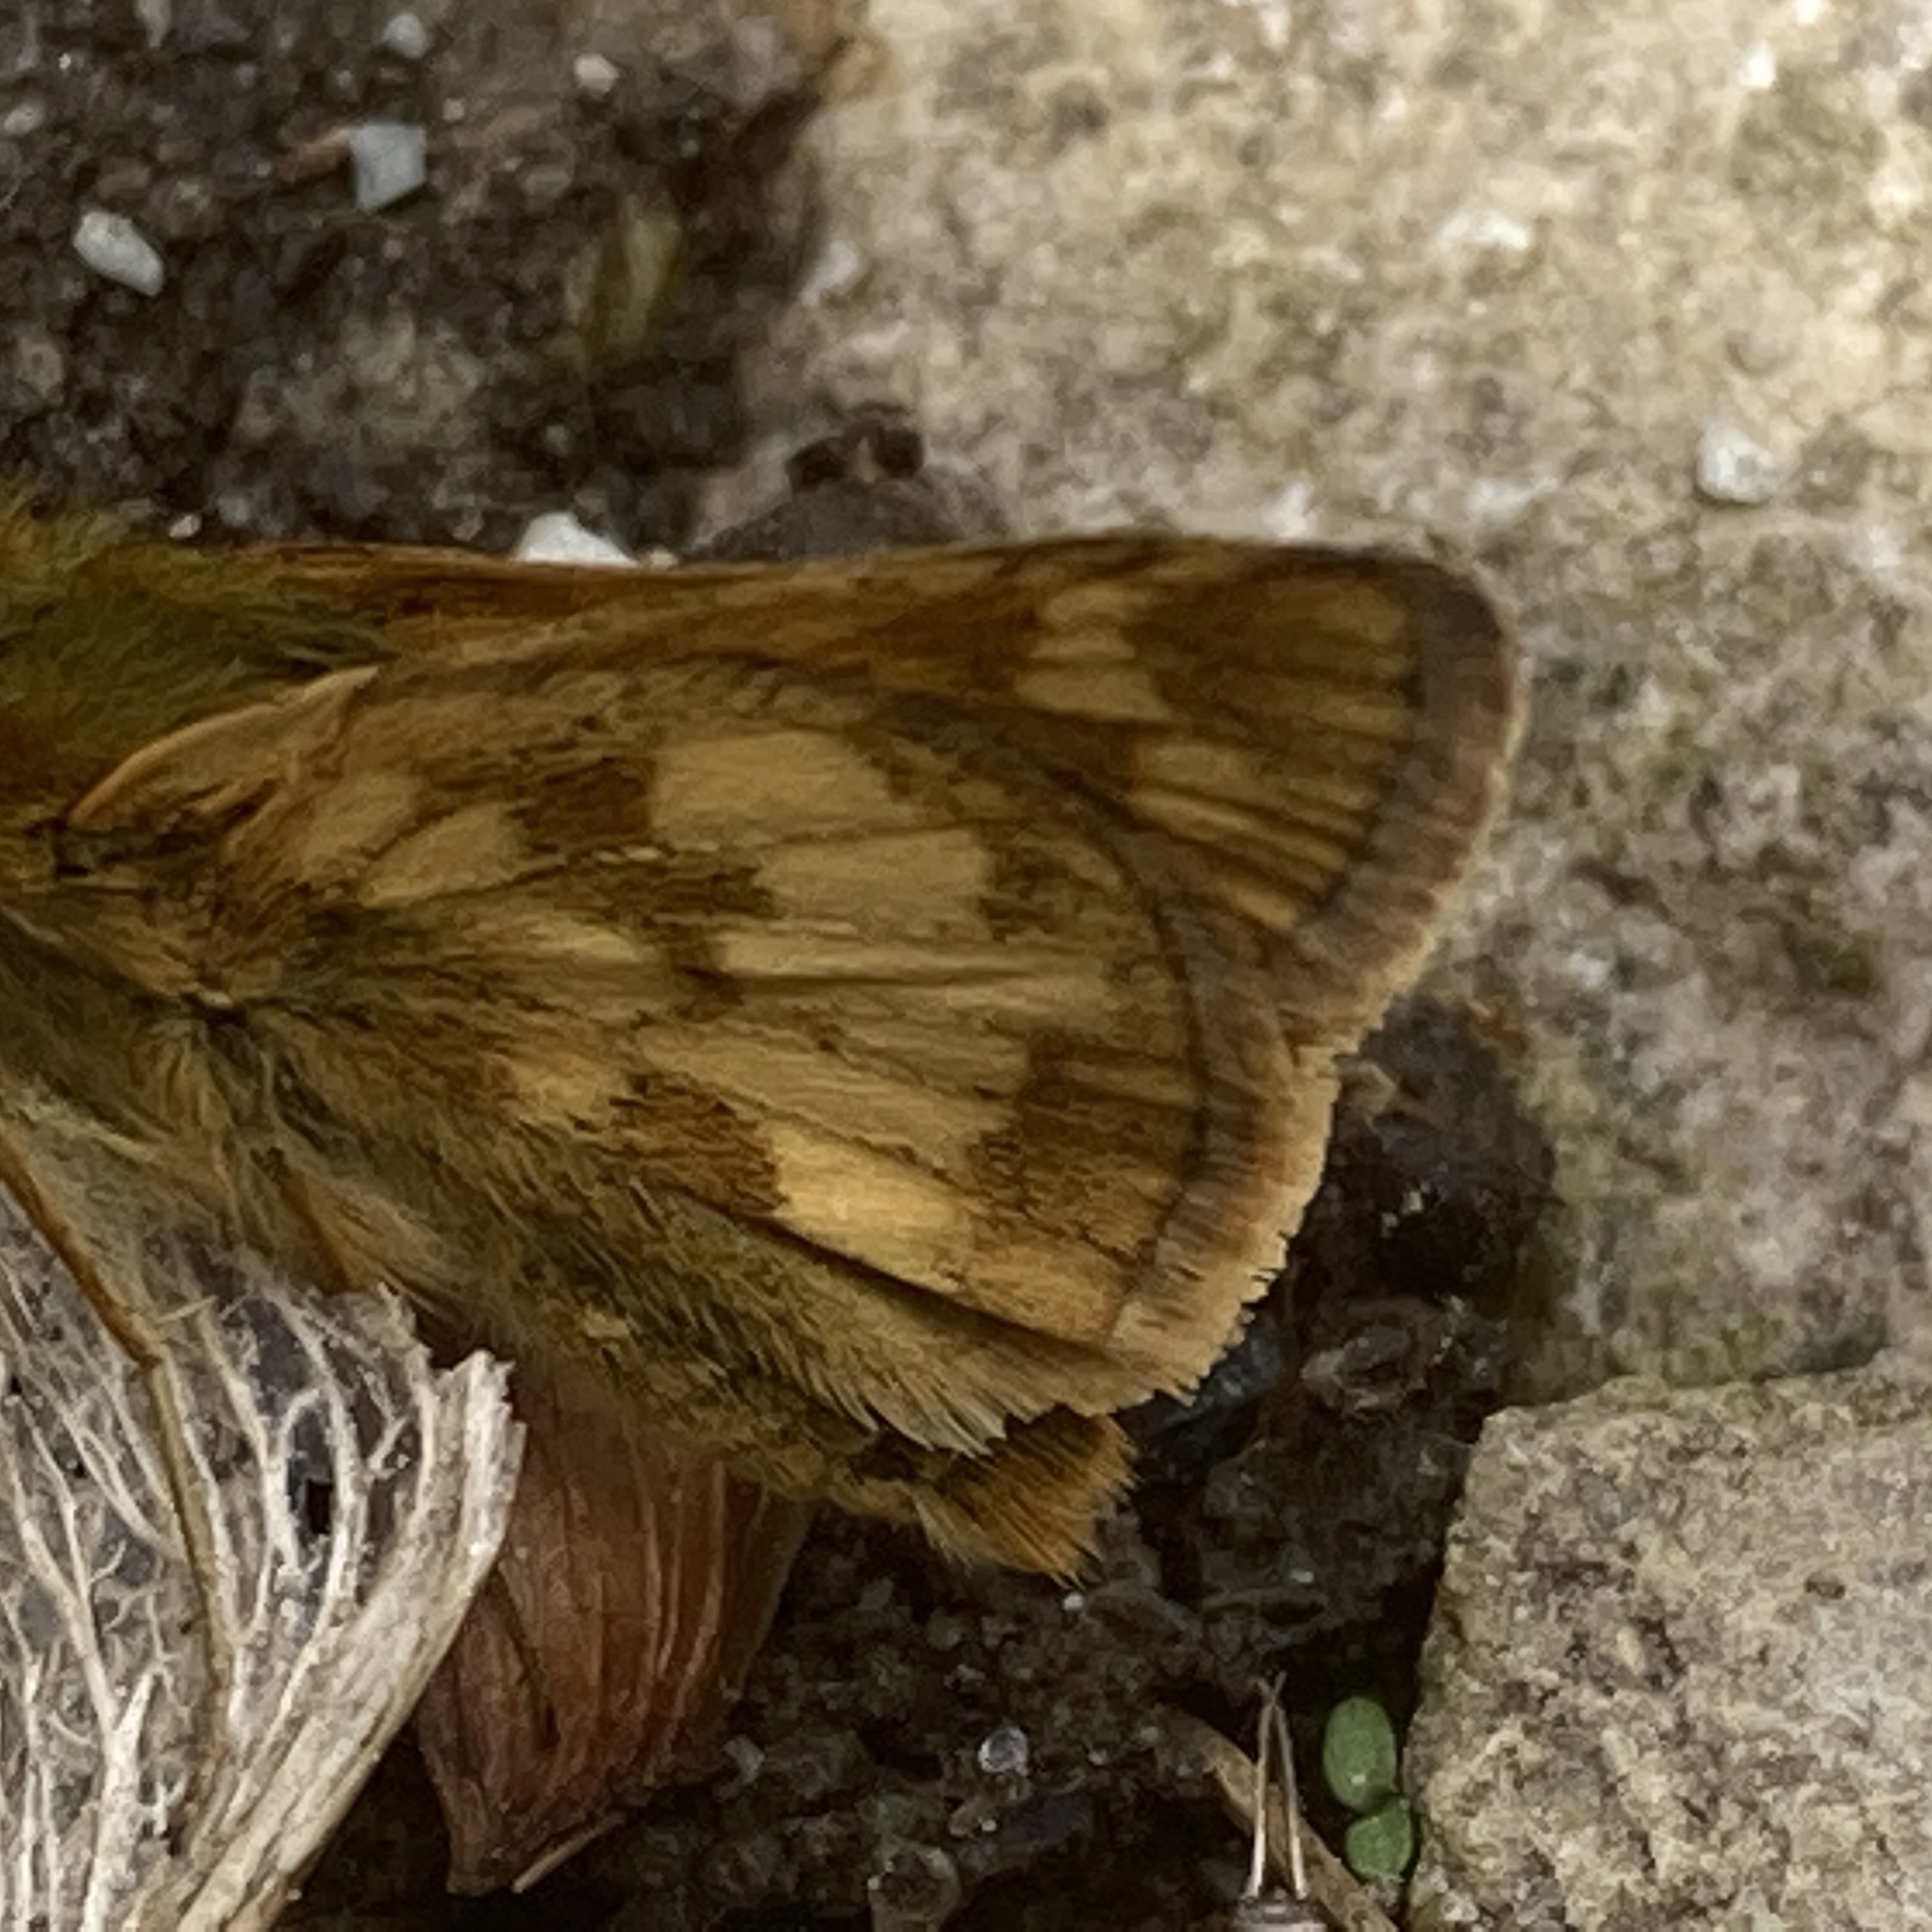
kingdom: Animalia
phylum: Arthropoda
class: Insecta
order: Lepidoptera
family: Hesperiidae
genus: Polites
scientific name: Polites coras
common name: Peck's skipper
